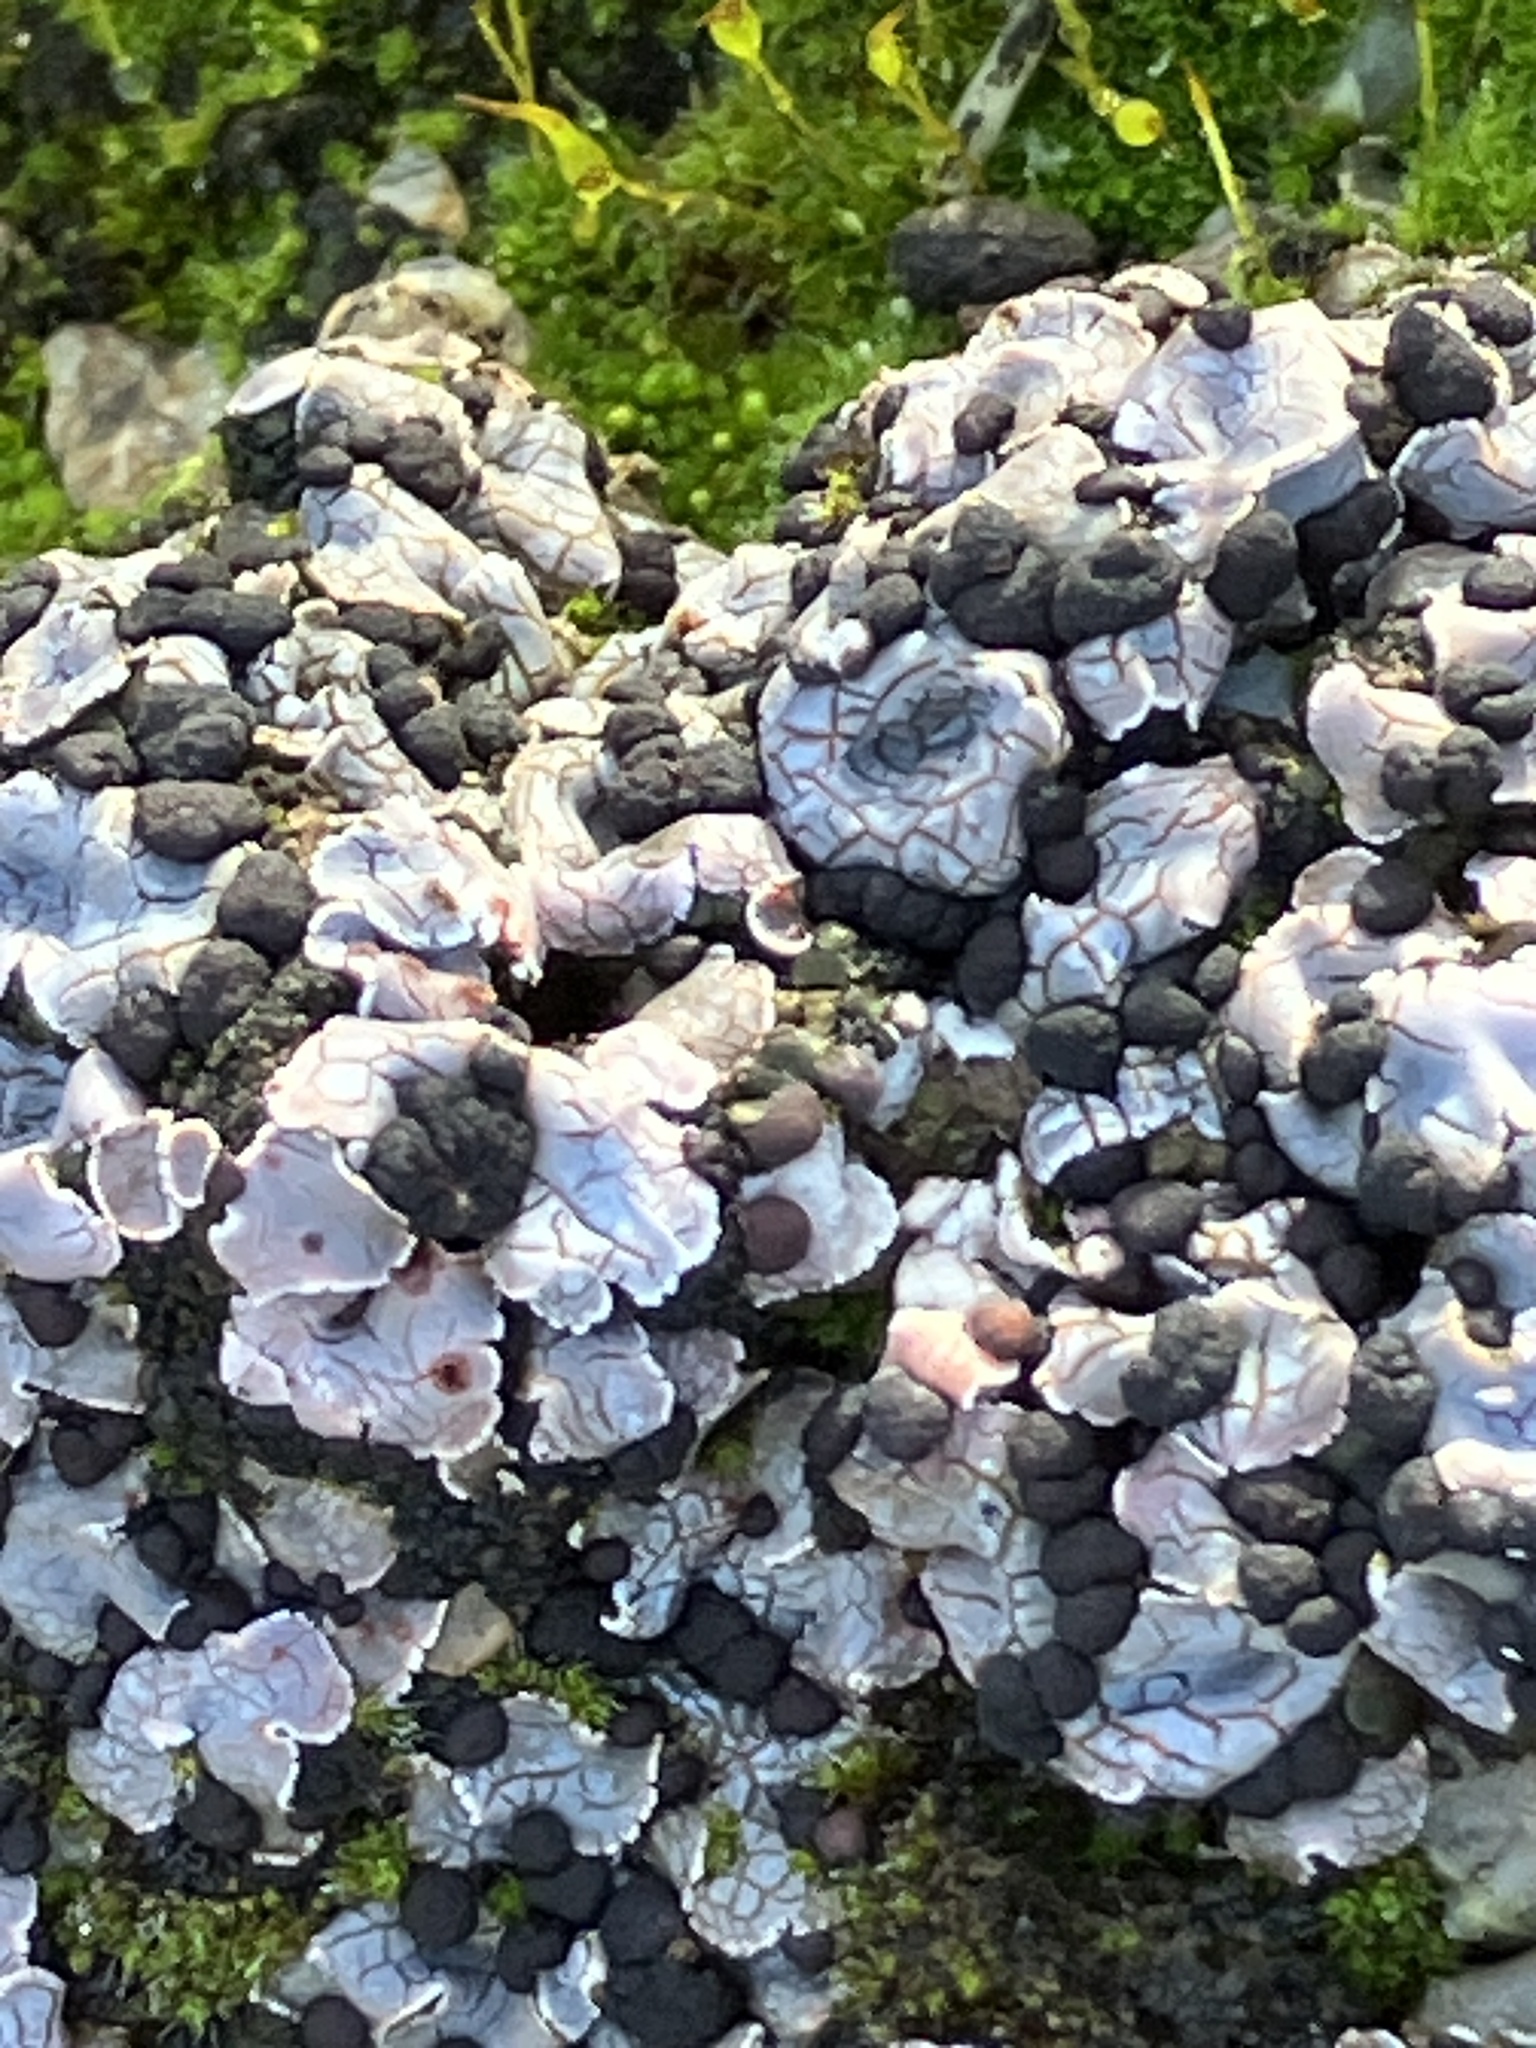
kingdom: Fungi
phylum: Ascomycota
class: Lecanoromycetes
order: Lecanorales
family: Psoraceae
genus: Psora
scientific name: Psora decipiens
